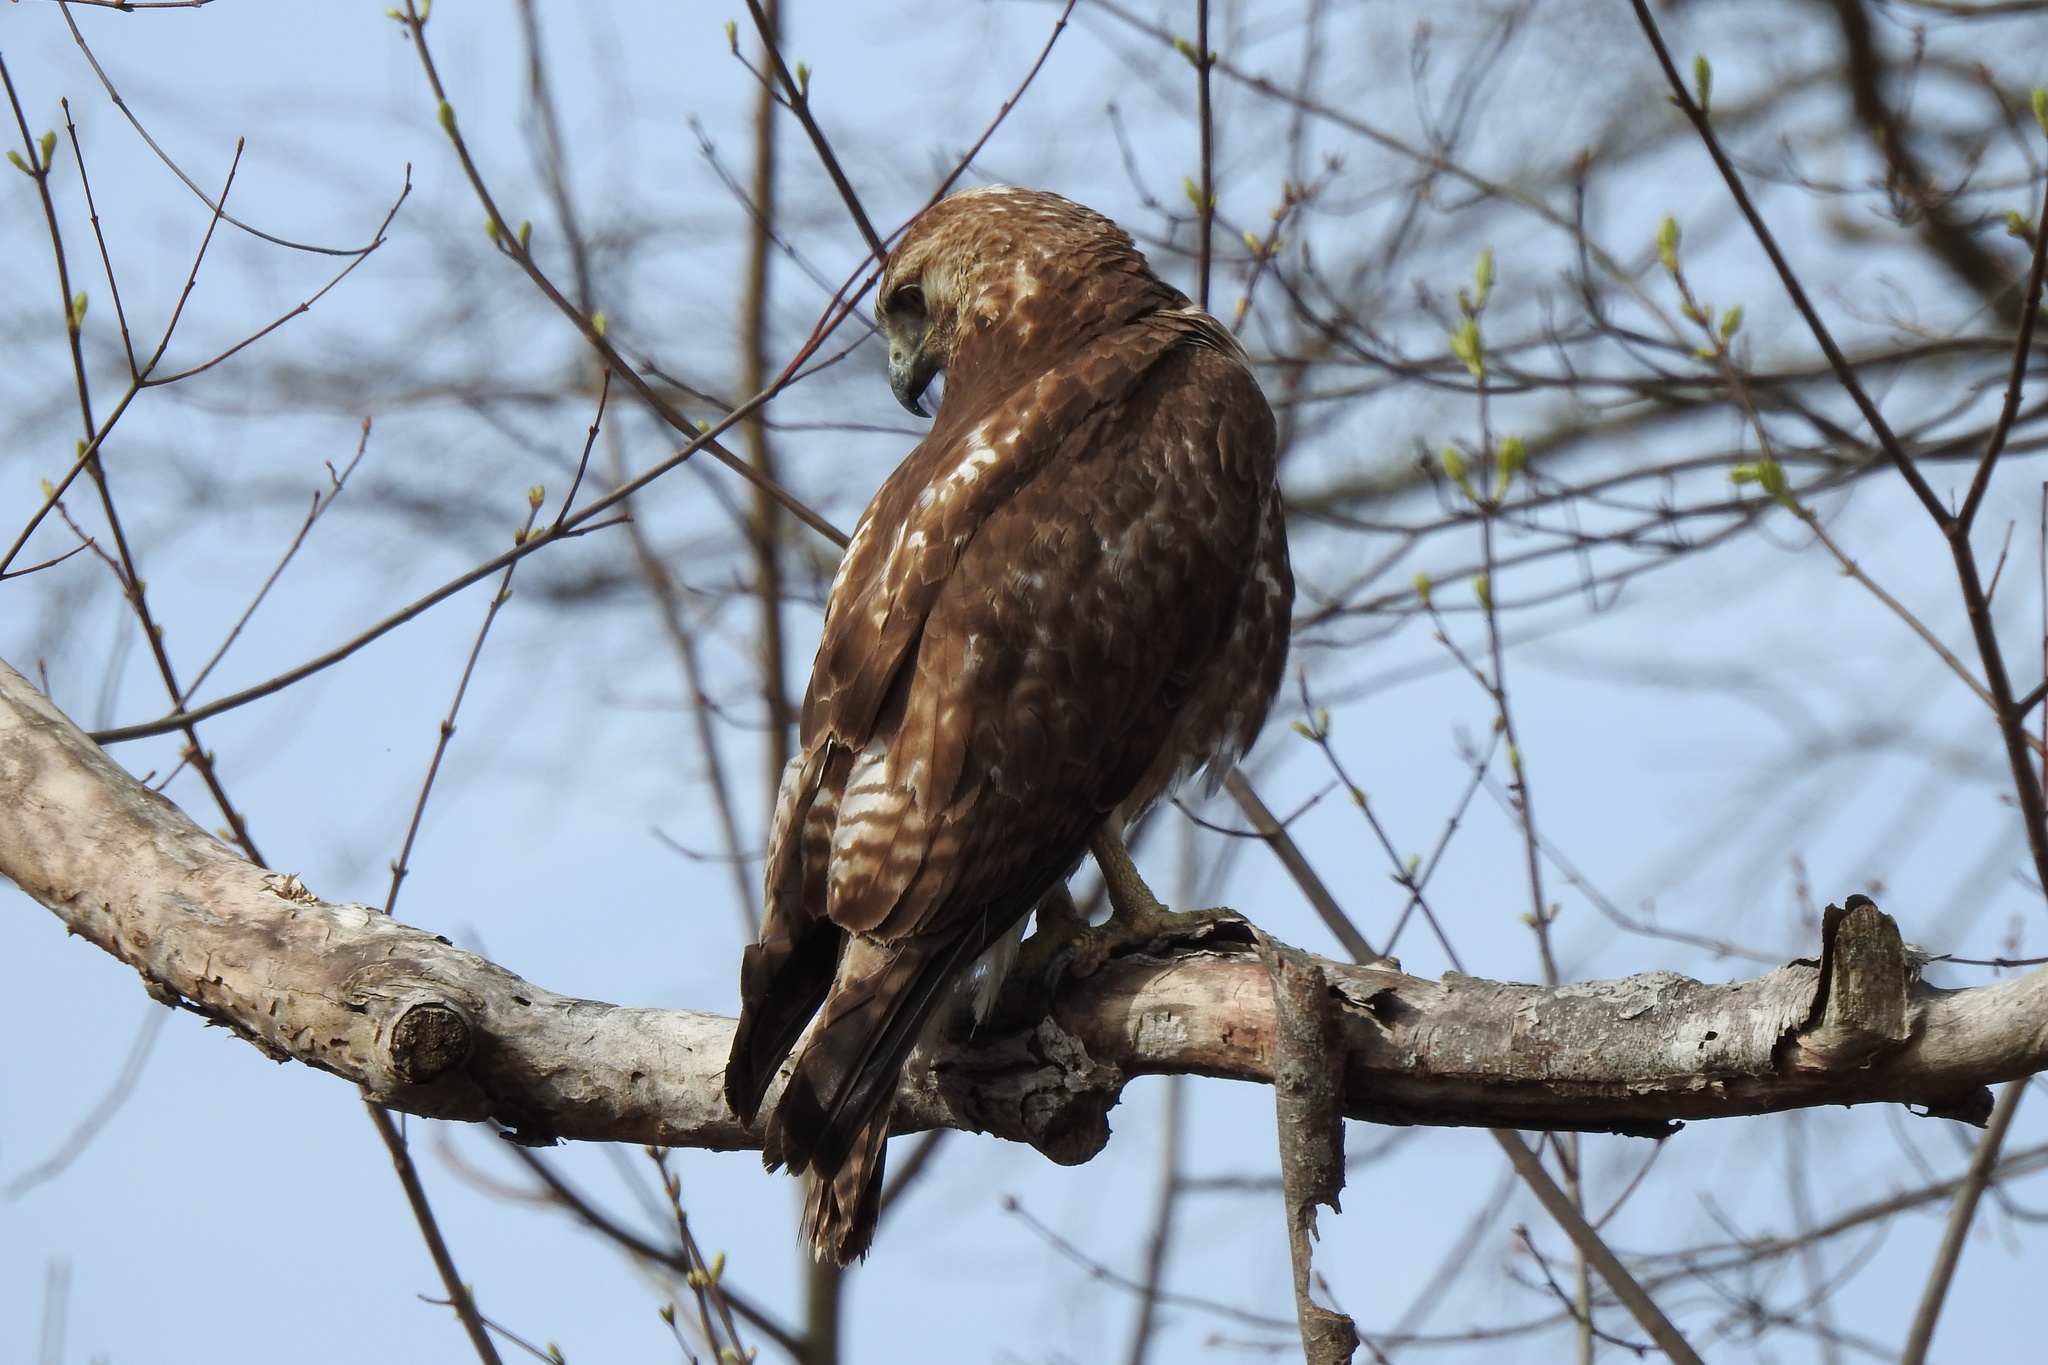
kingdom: Animalia
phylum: Chordata
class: Aves
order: Accipitriformes
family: Accipitridae
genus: Buteo
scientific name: Buteo jamaicensis
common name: Red-tailed hawk
